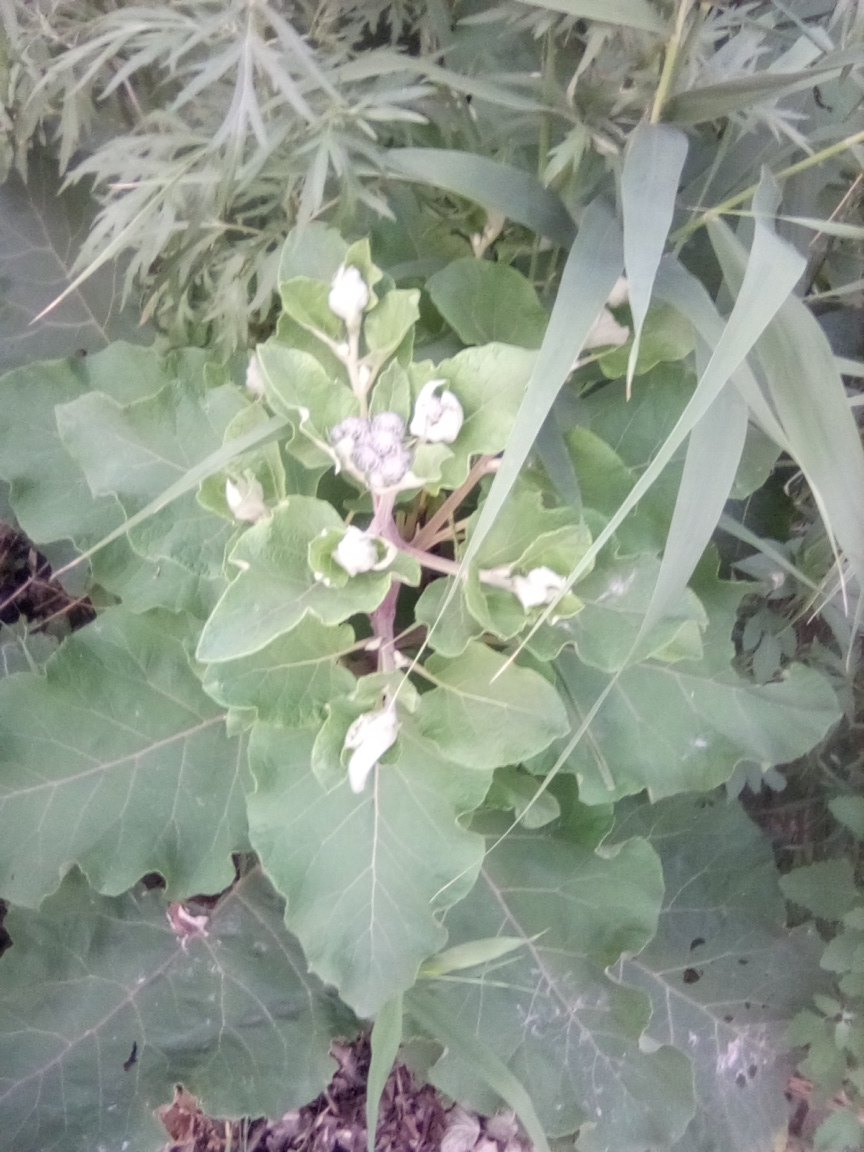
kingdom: Plantae
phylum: Tracheophyta
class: Magnoliopsida
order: Asterales
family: Asteraceae
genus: Arctium
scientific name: Arctium tomentosum
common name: Woolly burdock
